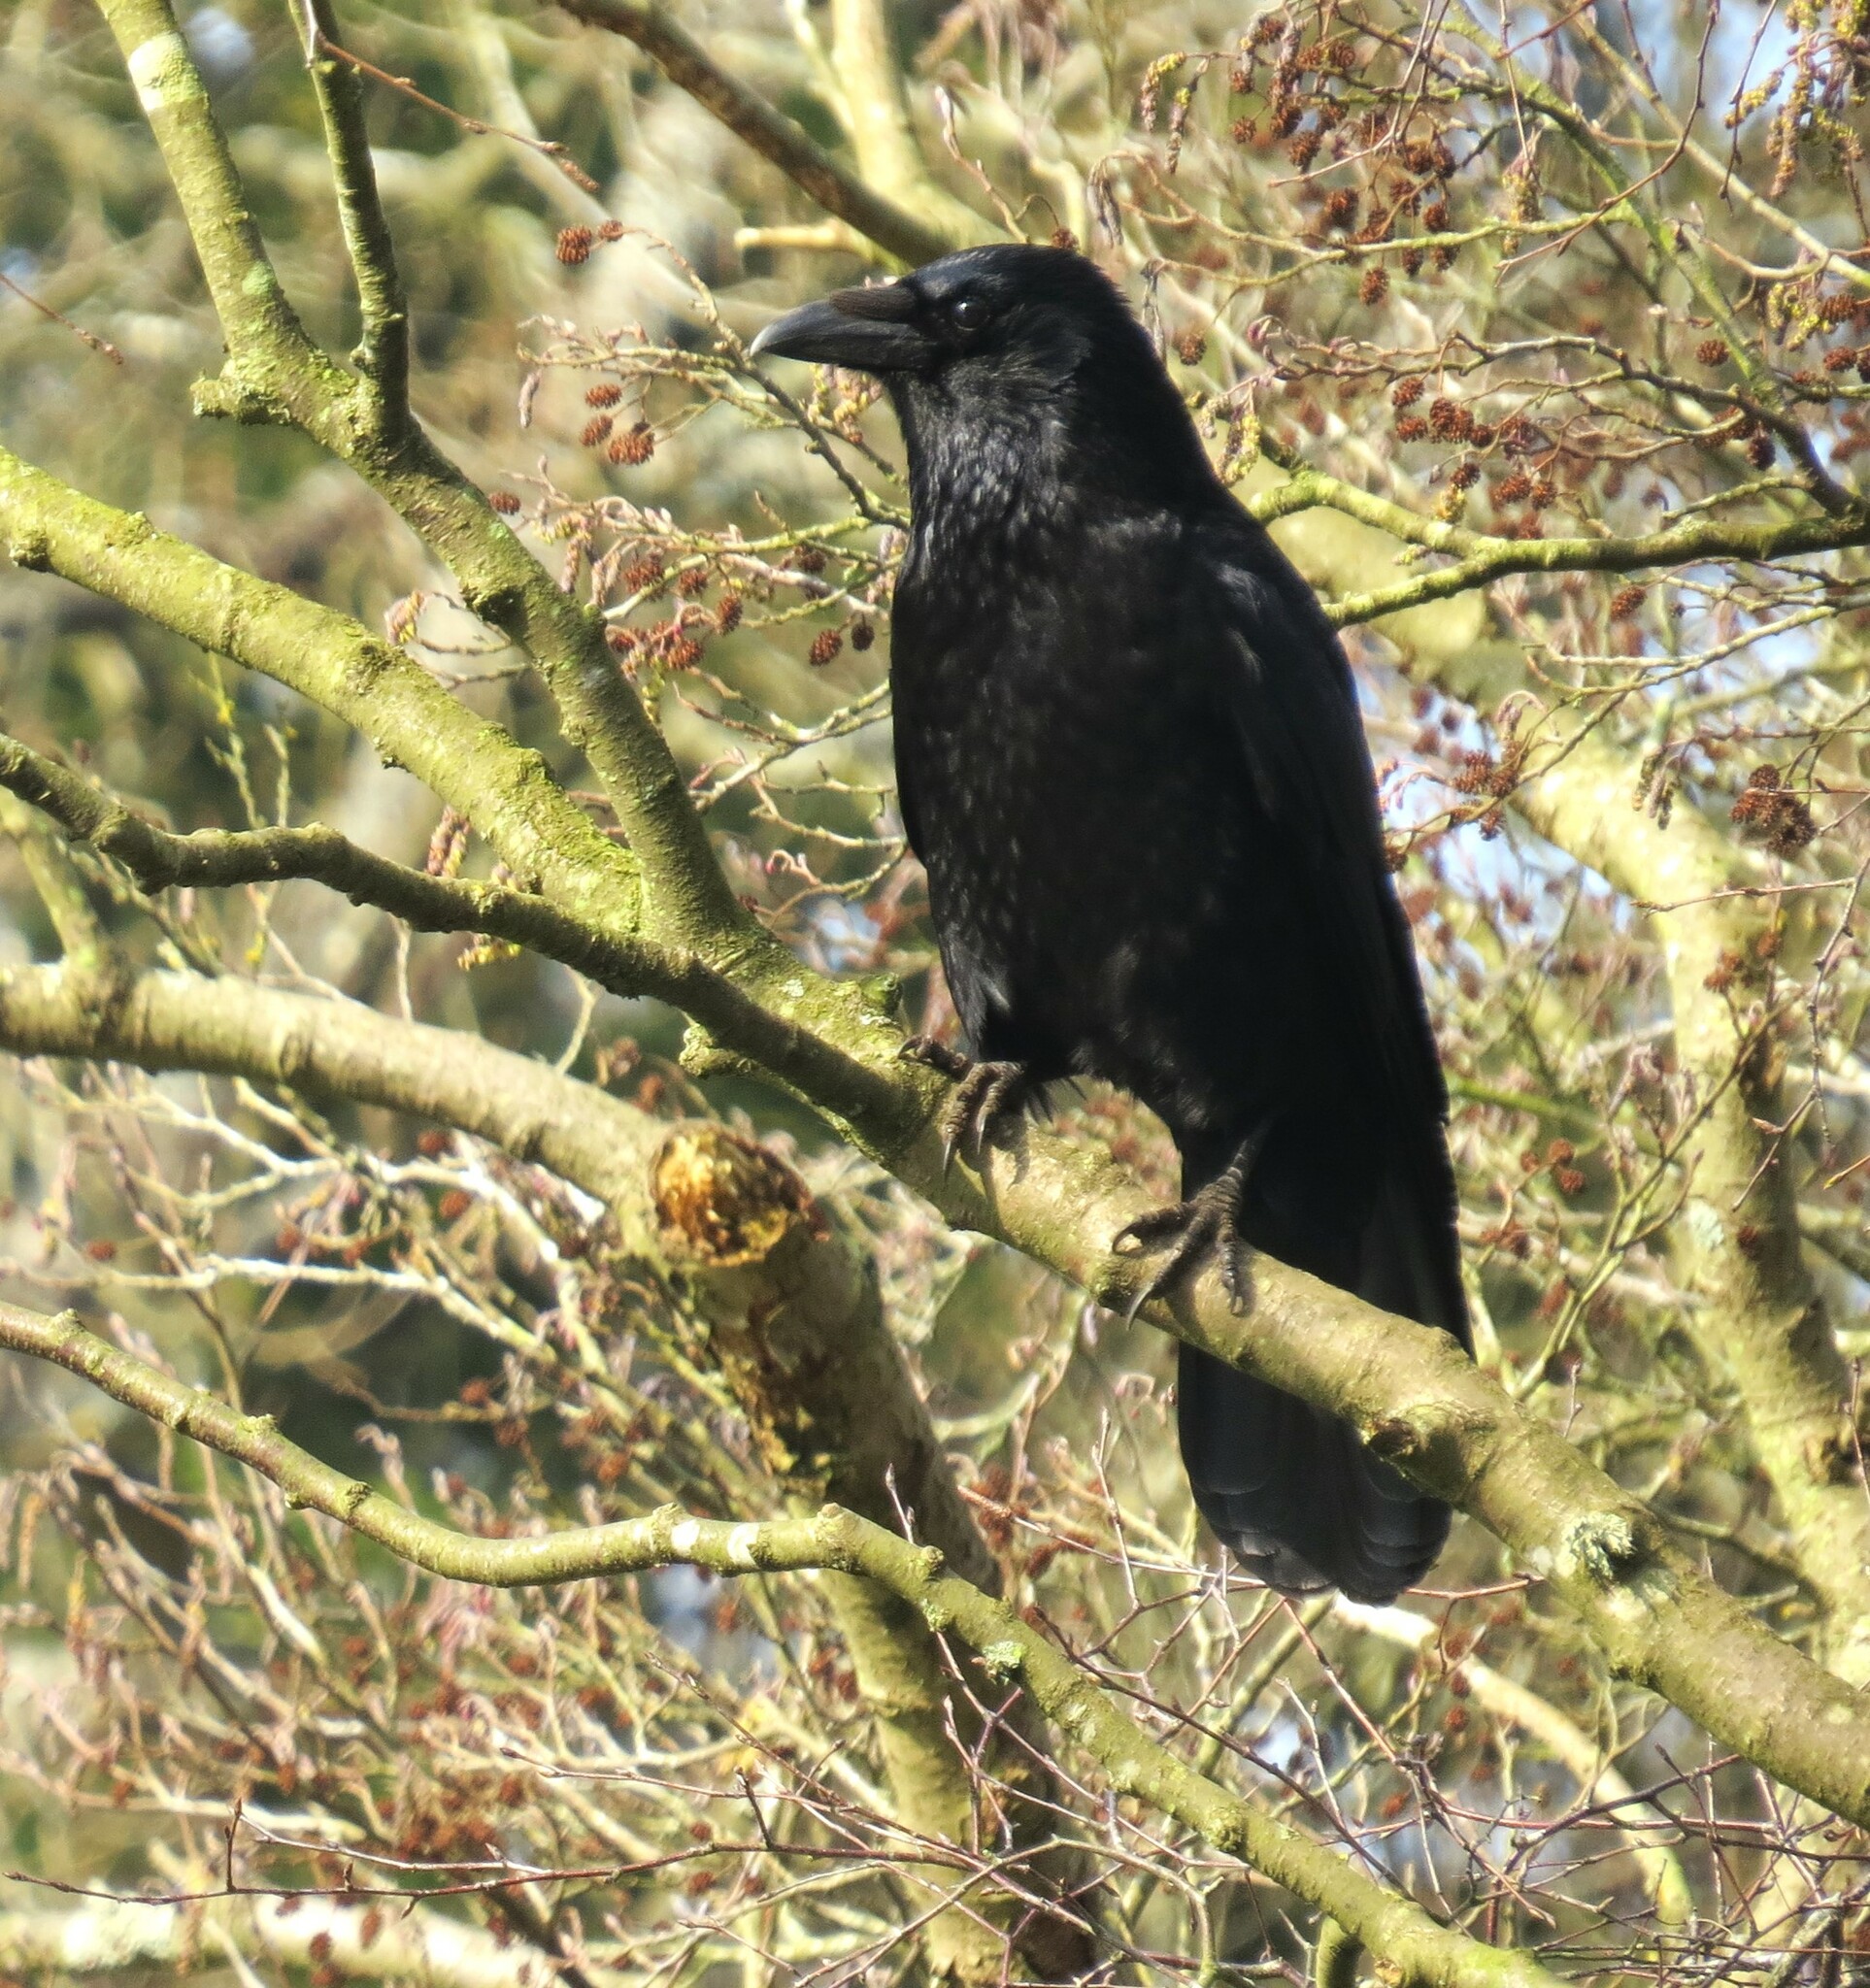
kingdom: Animalia
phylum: Chordata
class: Aves
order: Passeriformes
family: Corvidae
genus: Corvus
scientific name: Corvus corone
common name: Carrion crow
